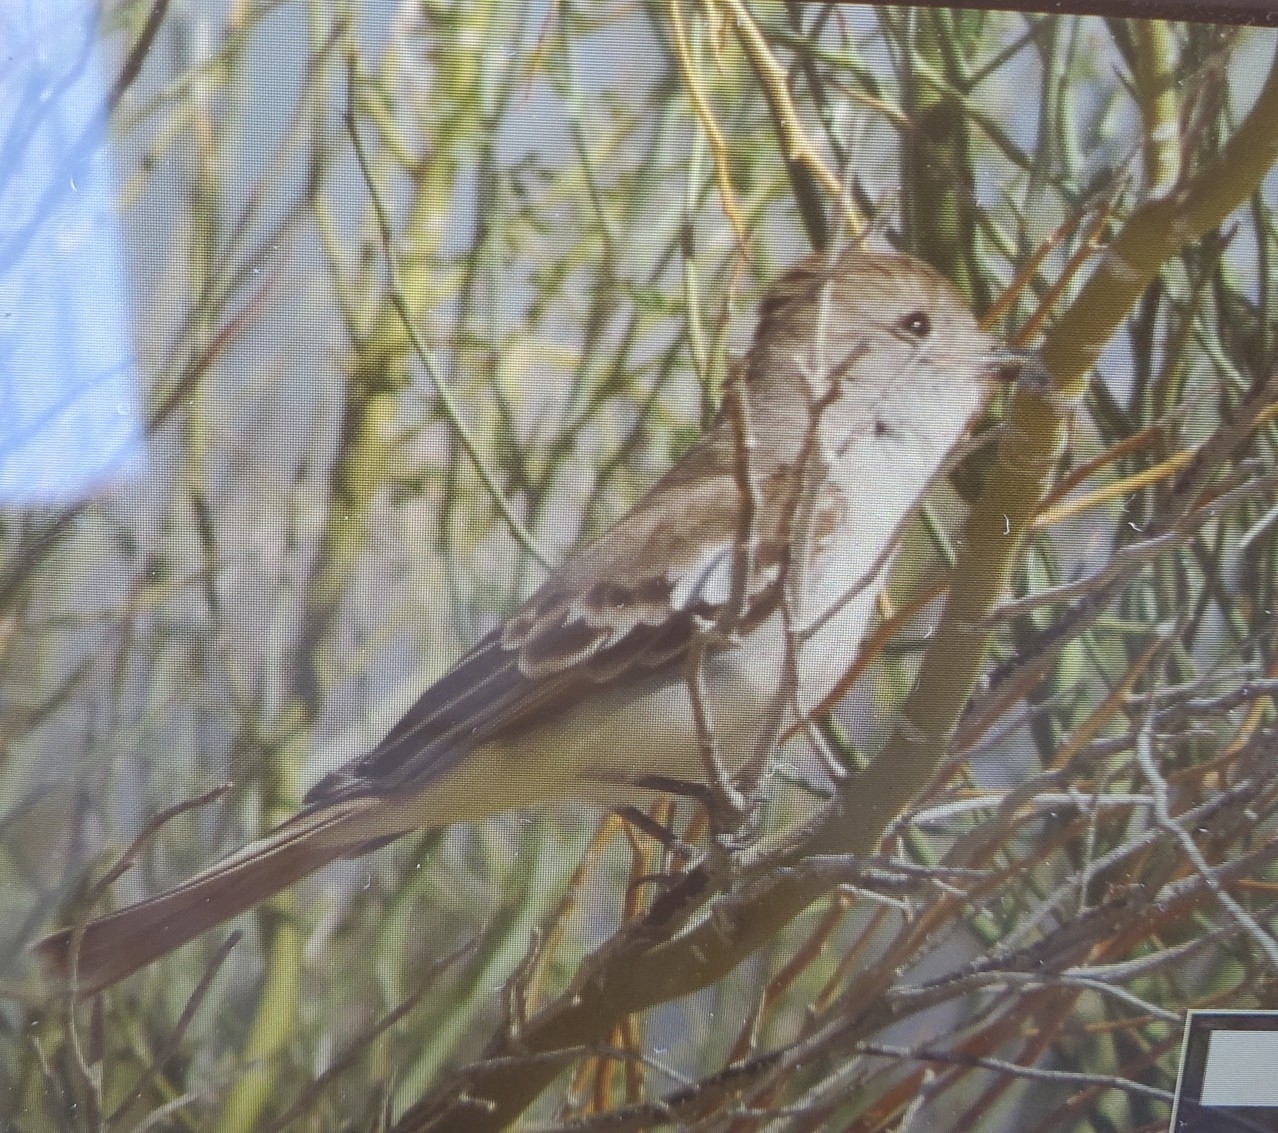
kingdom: Animalia
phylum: Chordata
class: Aves
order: Passeriformes
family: Tyrannidae
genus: Myiarchus
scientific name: Myiarchus cinerascens
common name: Ash-throated flycatcher
